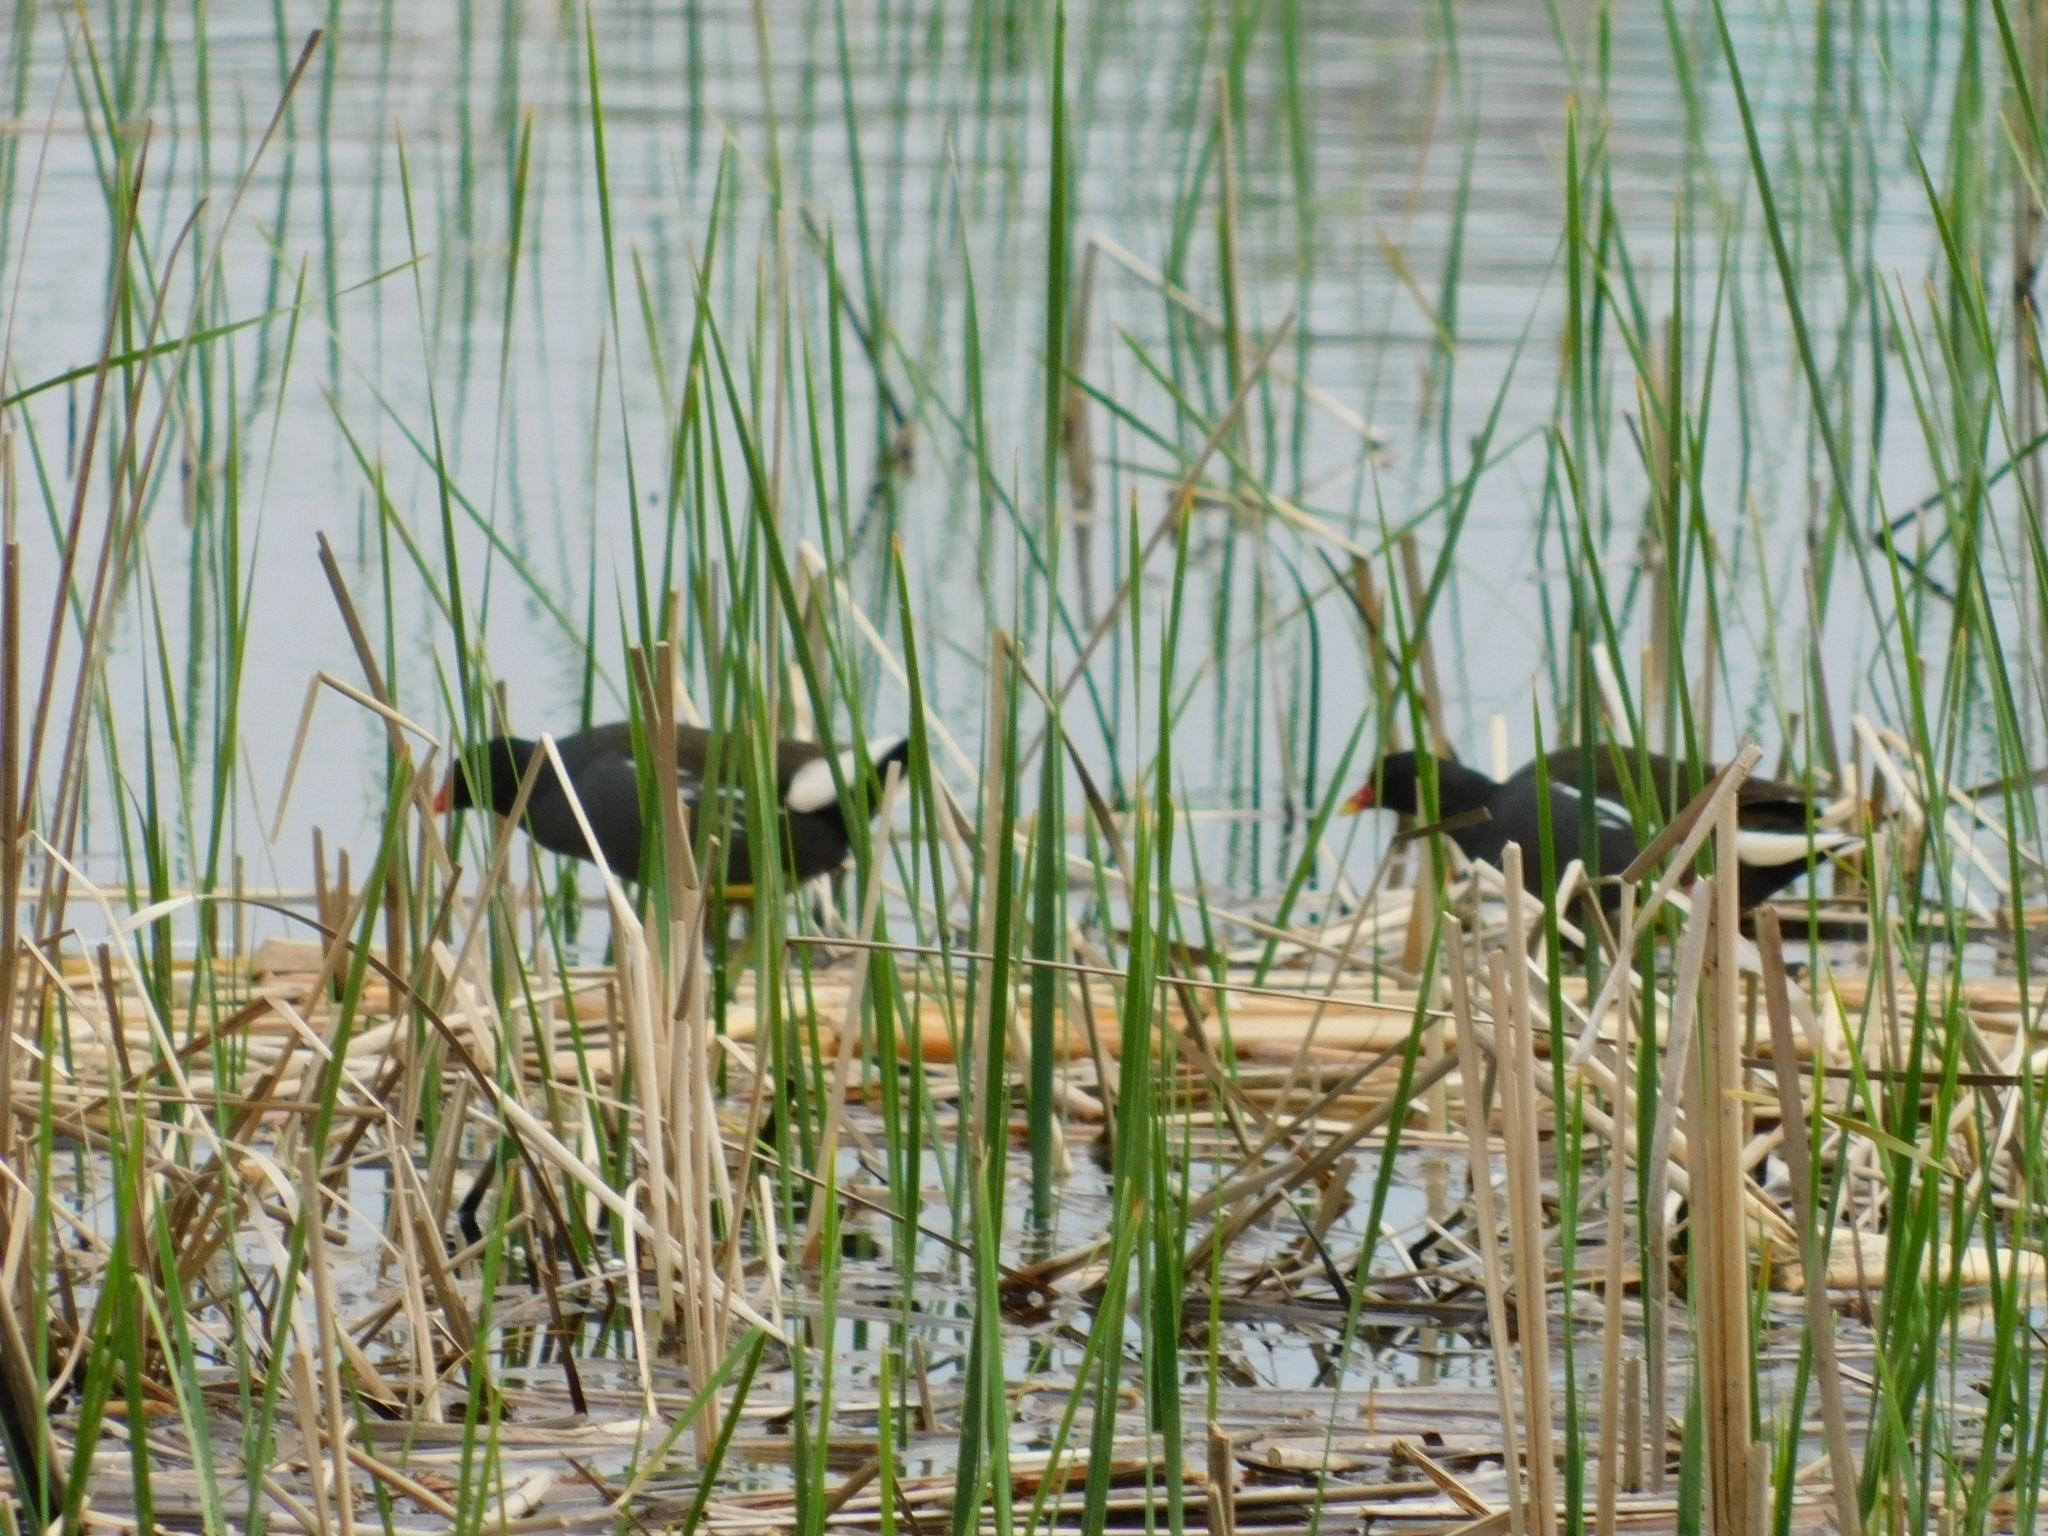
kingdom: Animalia
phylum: Chordata
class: Aves
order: Gruiformes
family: Rallidae
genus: Gallinula
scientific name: Gallinula chloropus
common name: Common moorhen
